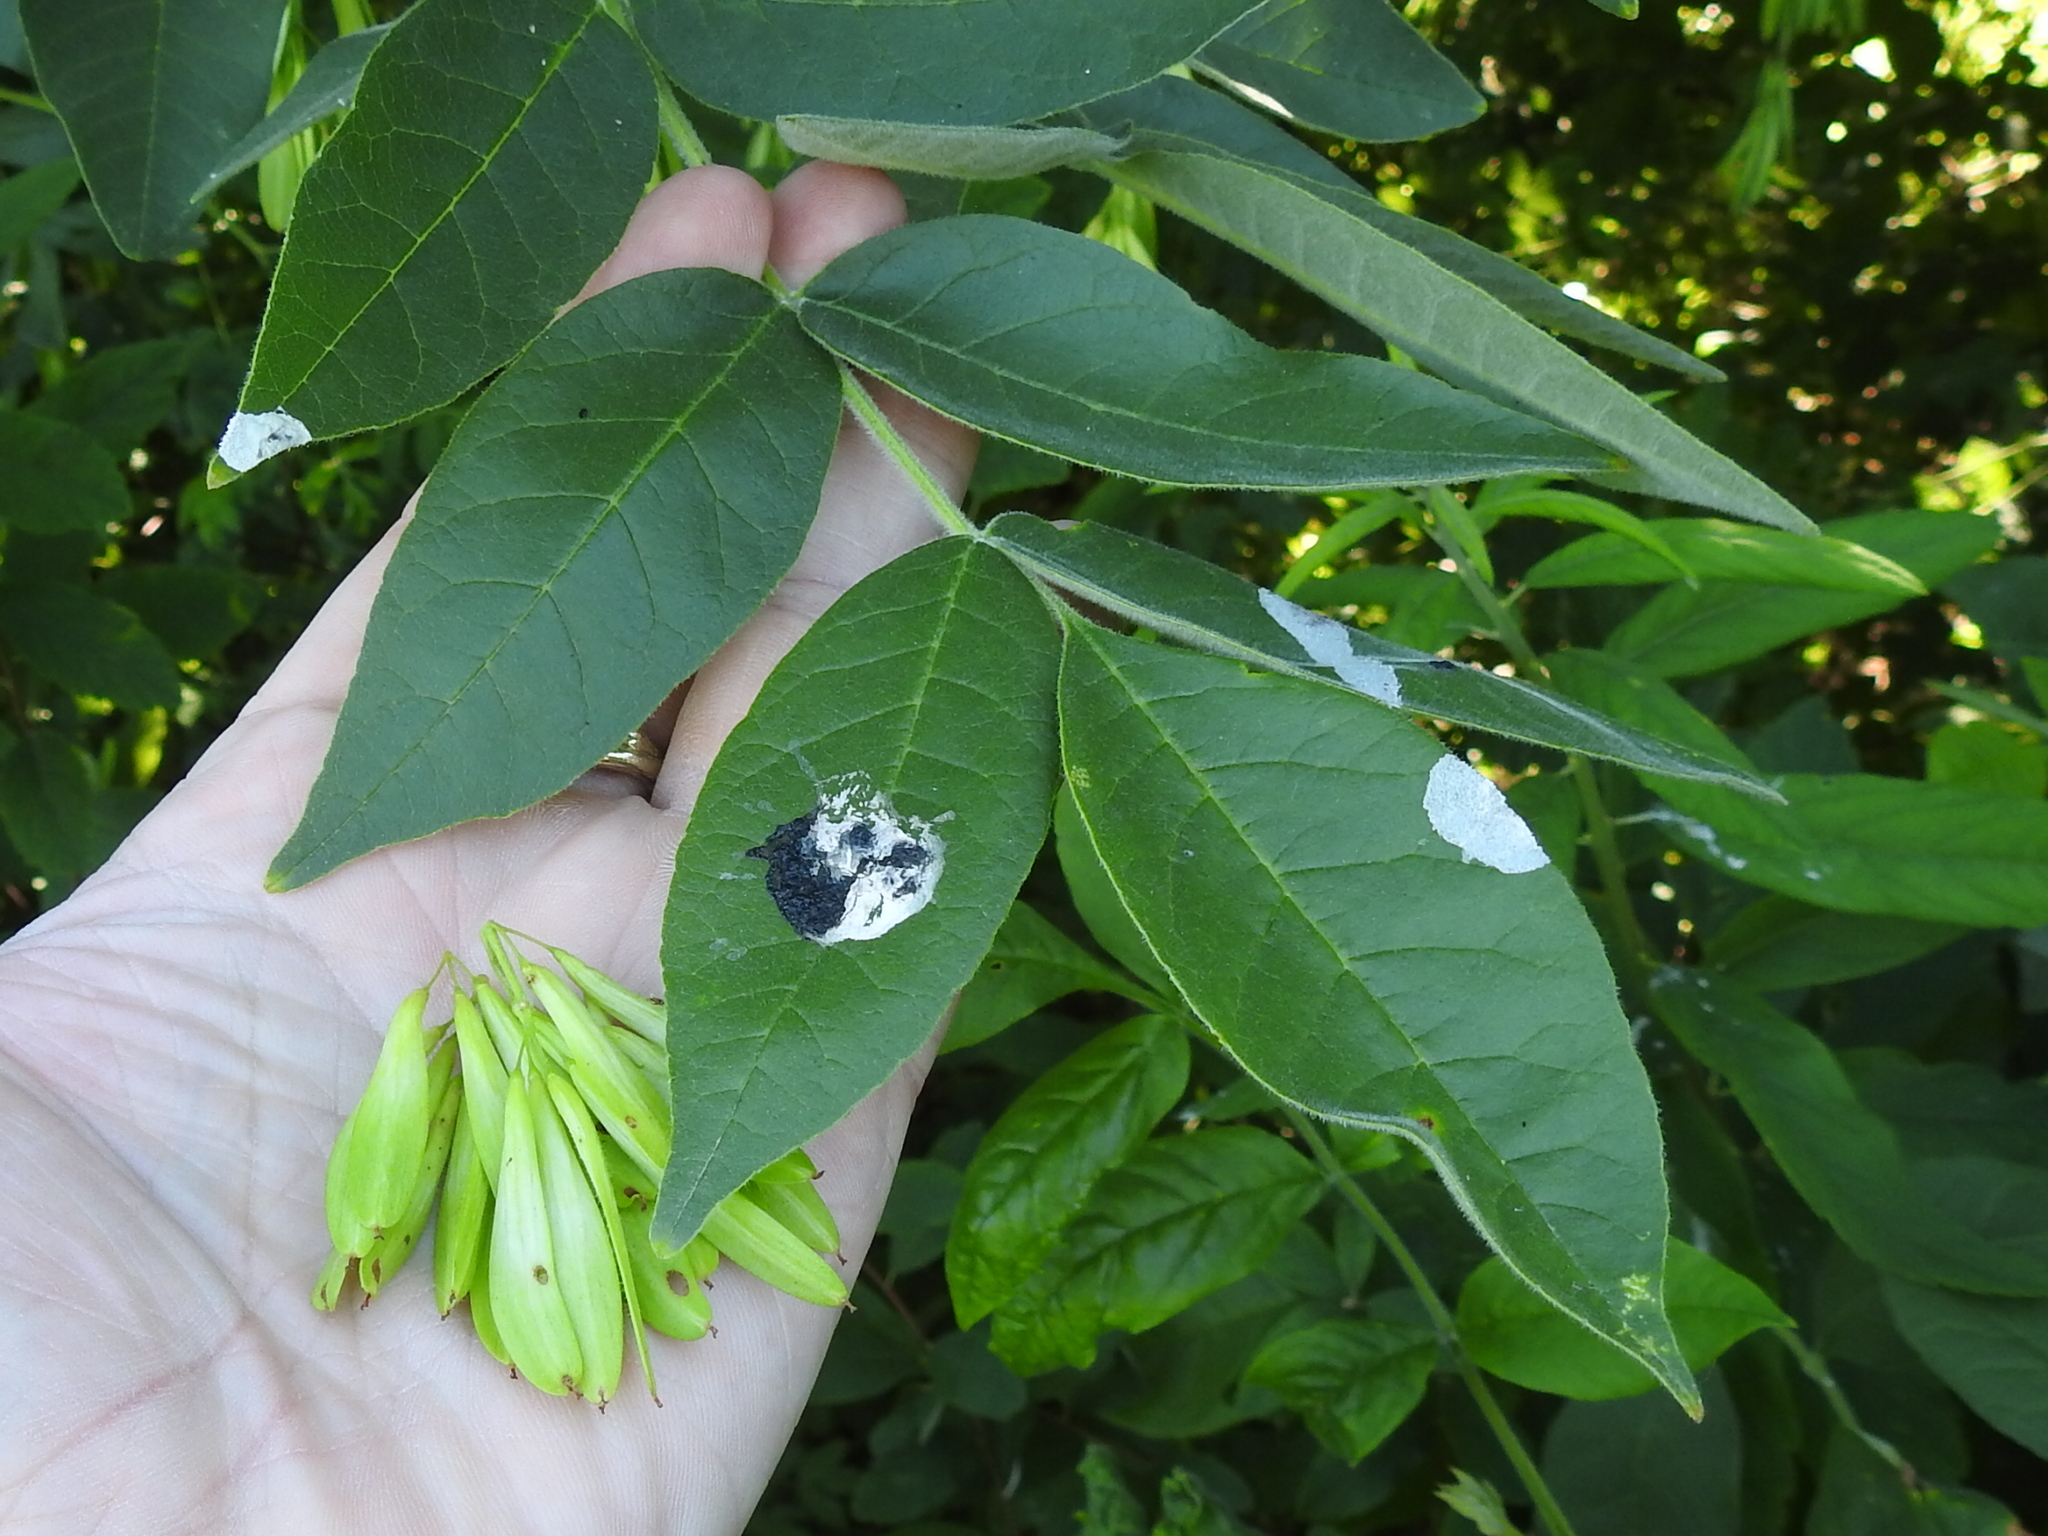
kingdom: Plantae
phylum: Tracheophyta
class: Magnoliopsida
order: Lamiales
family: Oleaceae
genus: Fraxinus
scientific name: Fraxinus latifolia
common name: Oregon ash
